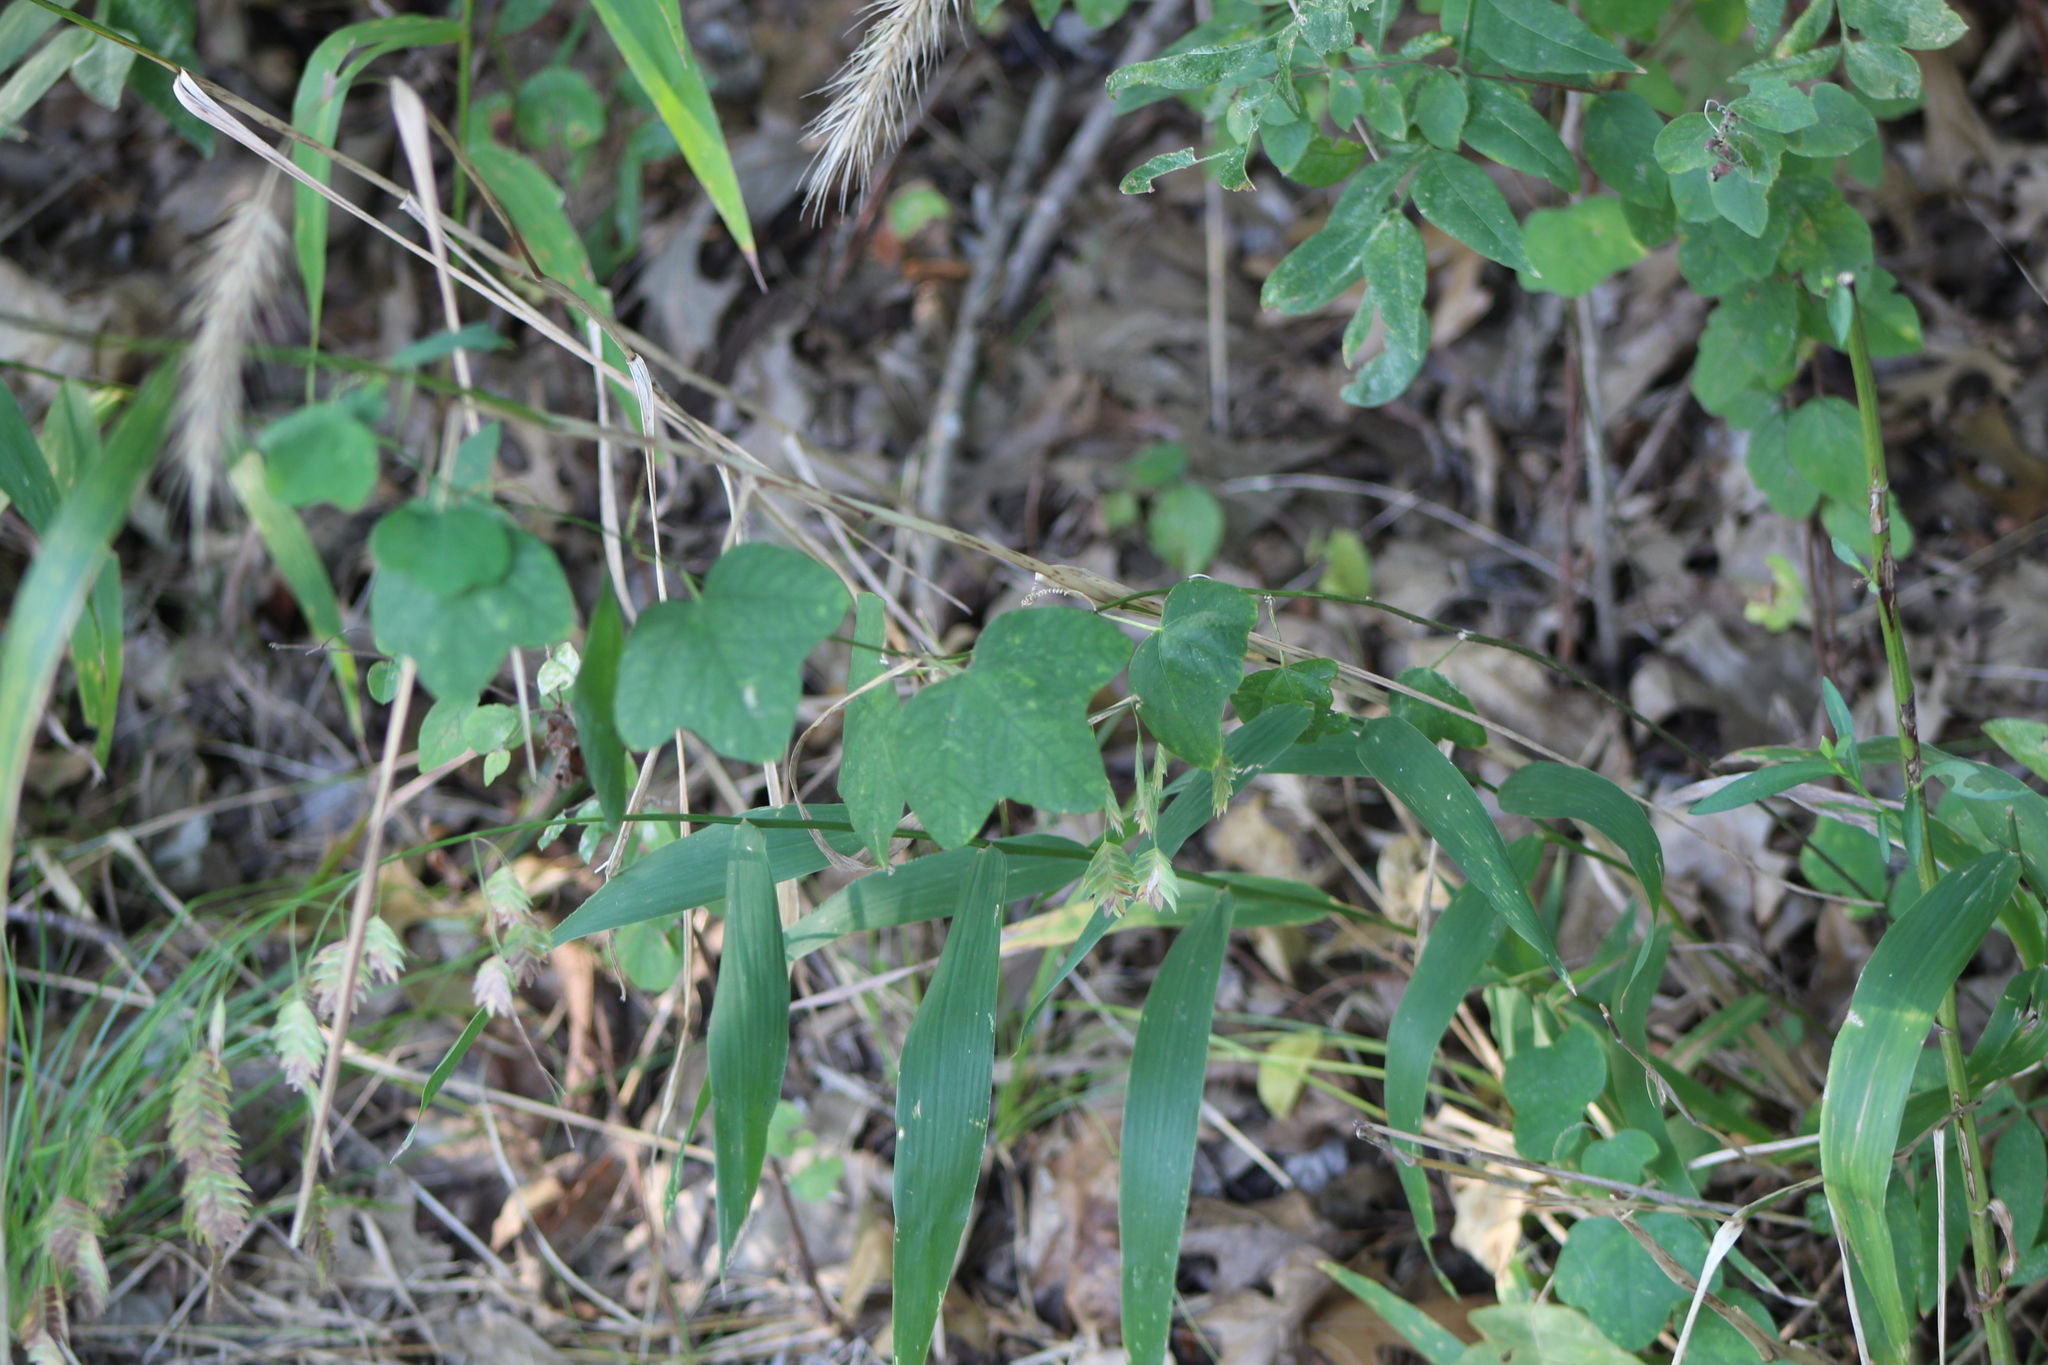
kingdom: Plantae
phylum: Tracheophyta
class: Magnoliopsida
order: Malpighiales
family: Passifloraceae
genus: Passiflora
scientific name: Passiflora lutea
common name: Yellow passionflower
